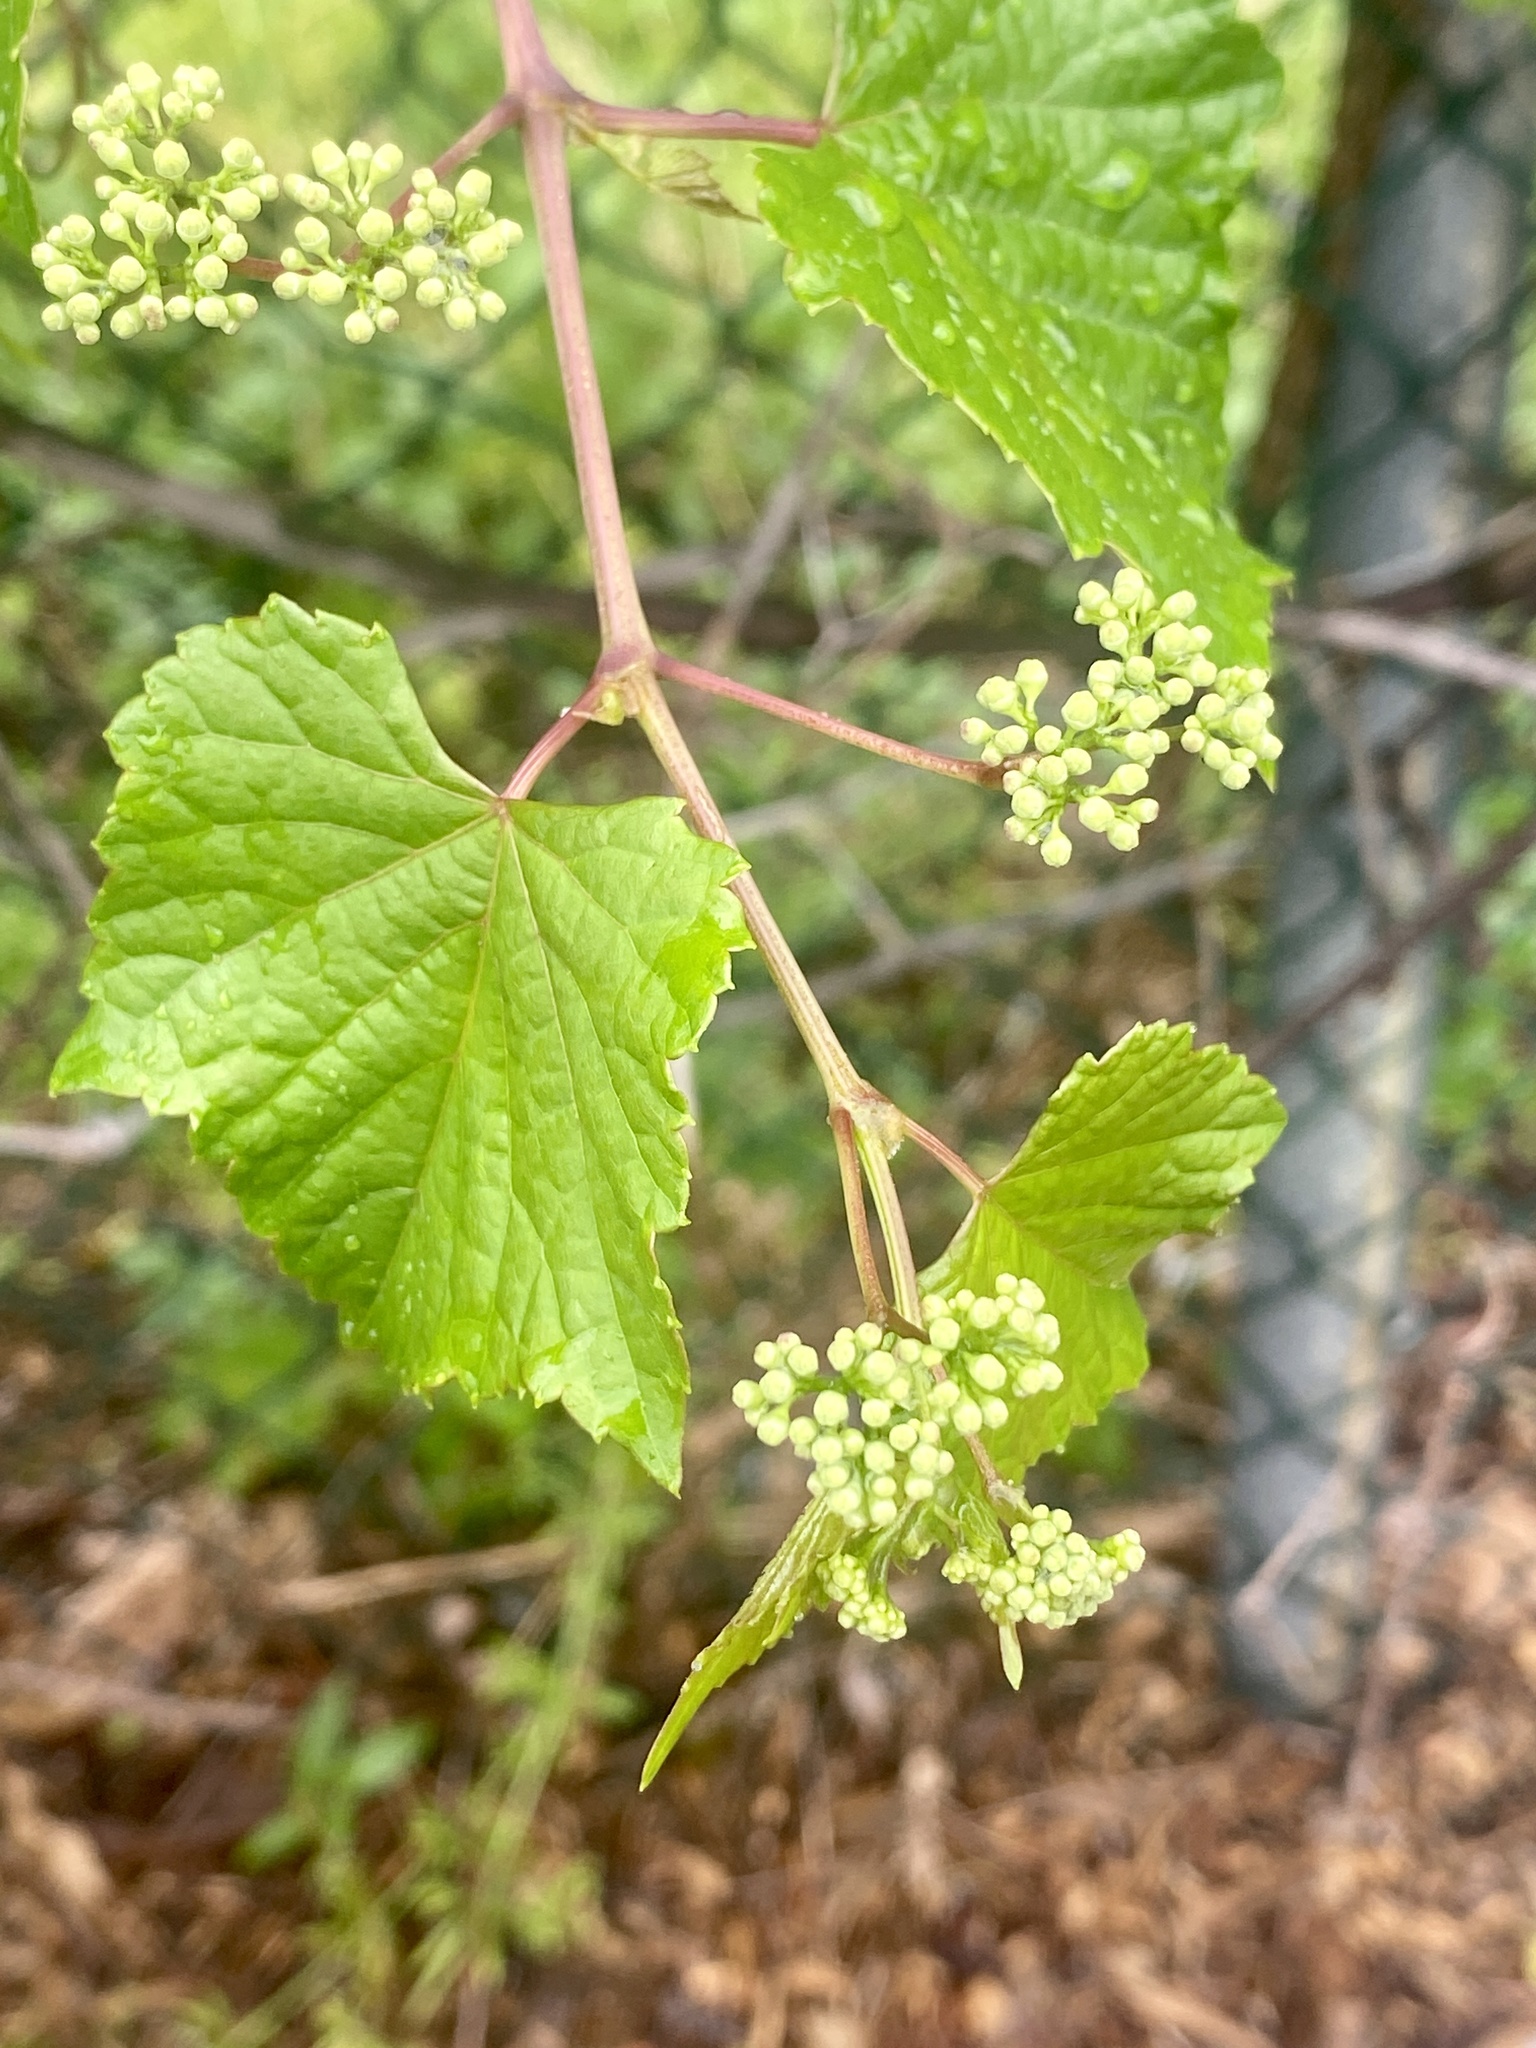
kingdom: Plantae
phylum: Tracheophyta
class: Magnoliopsida
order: Vitales
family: Vitaceae
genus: Ampelopsis
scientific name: Ampelopsis glandulosa
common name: Amur peppervine
